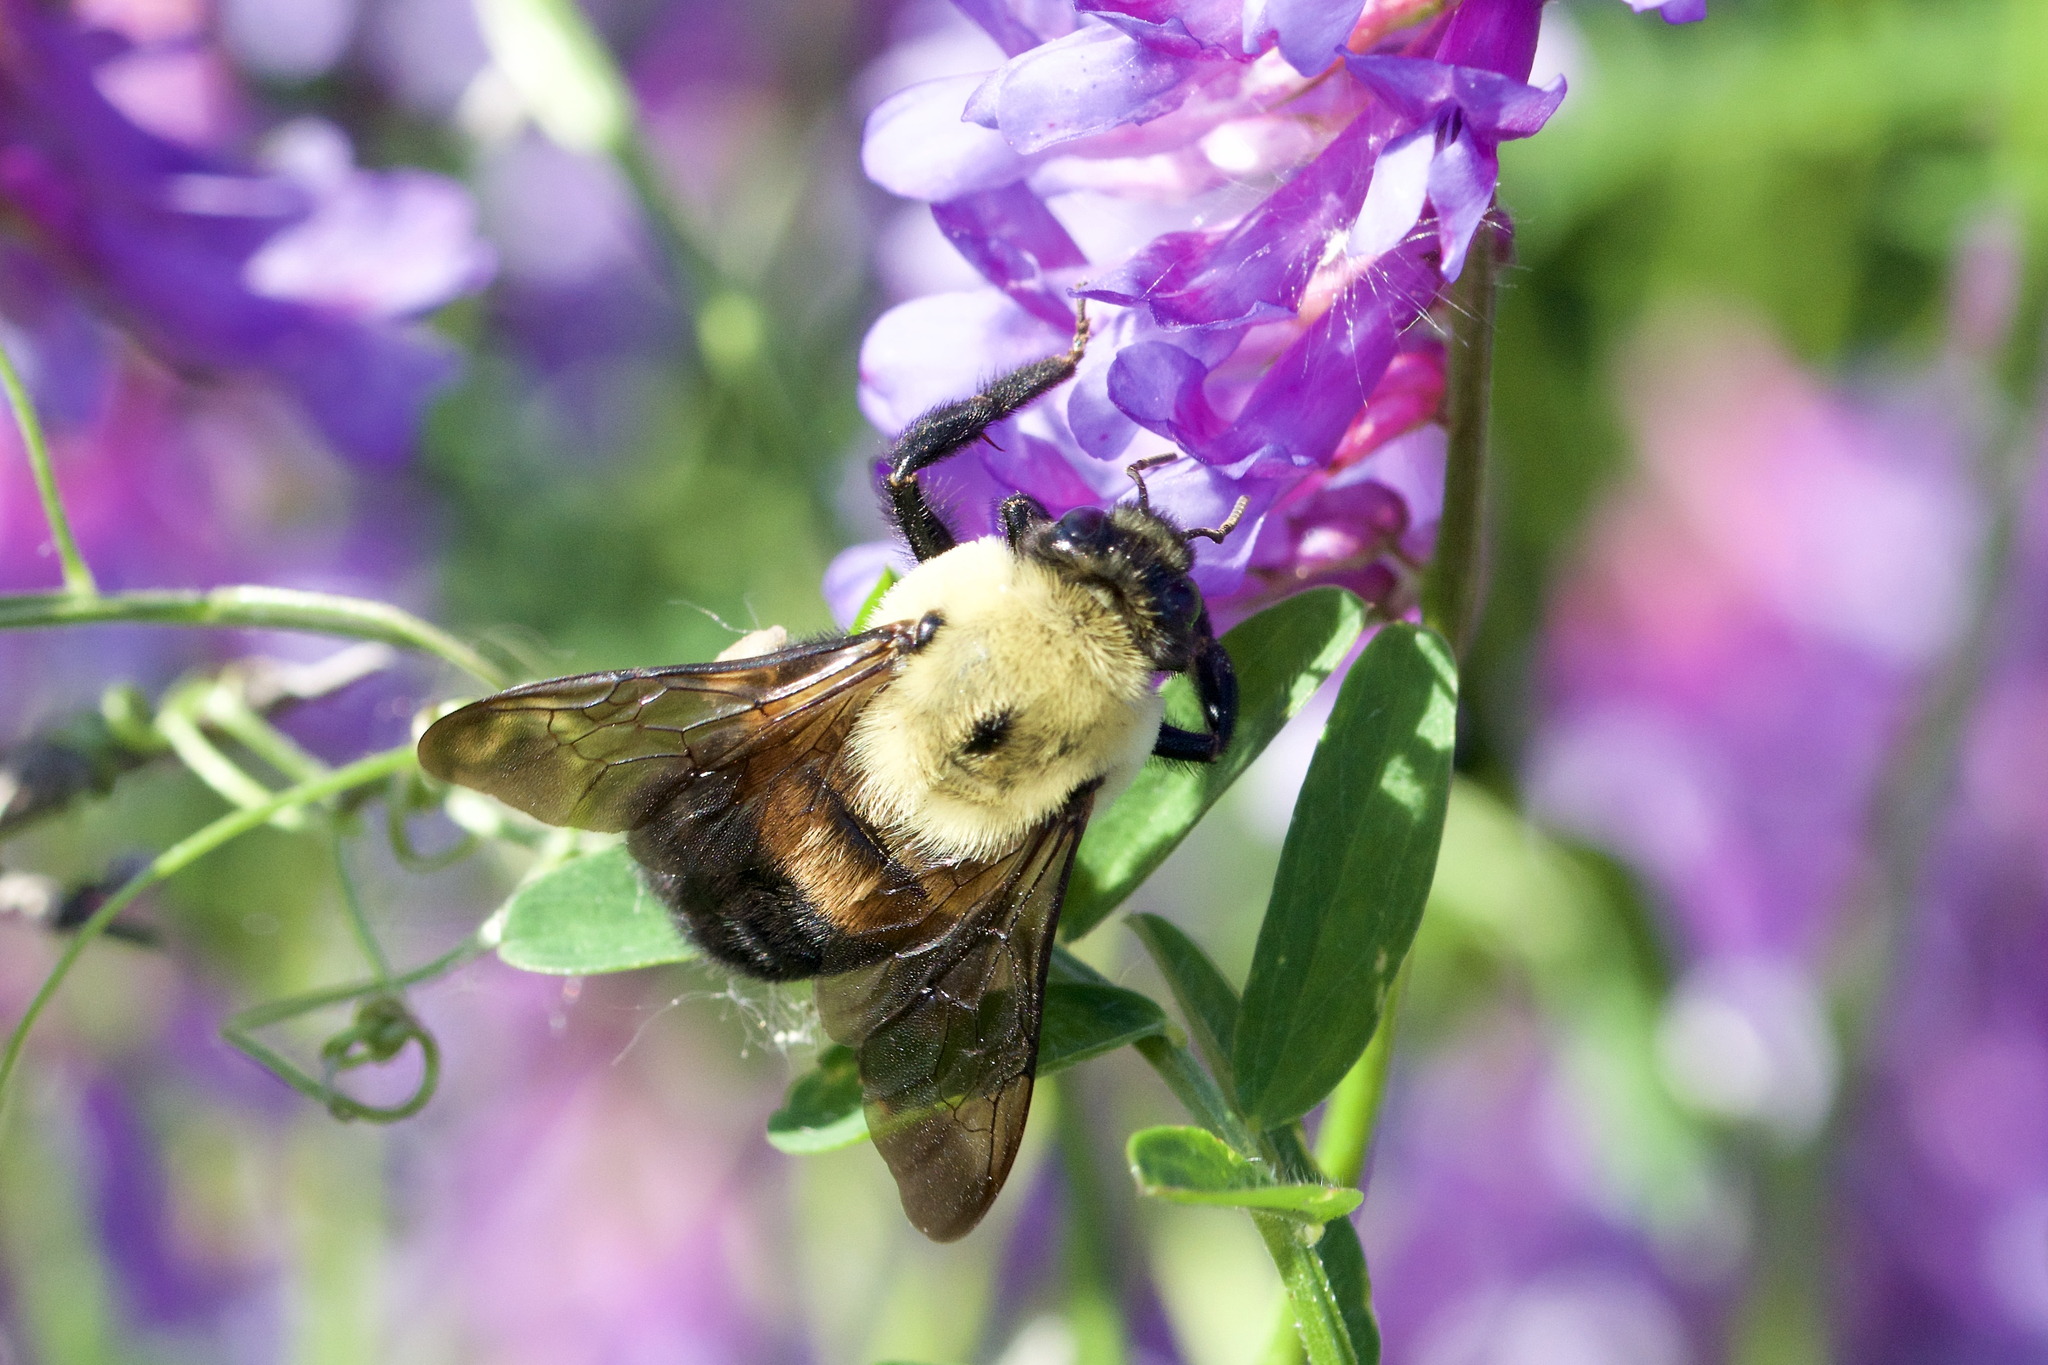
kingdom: Animalia
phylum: Arthropoda
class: Insecta
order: Hymenoptera
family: Apidae
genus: Bombus
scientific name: Bombus griseocollis
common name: Brown-belted bumble bee
